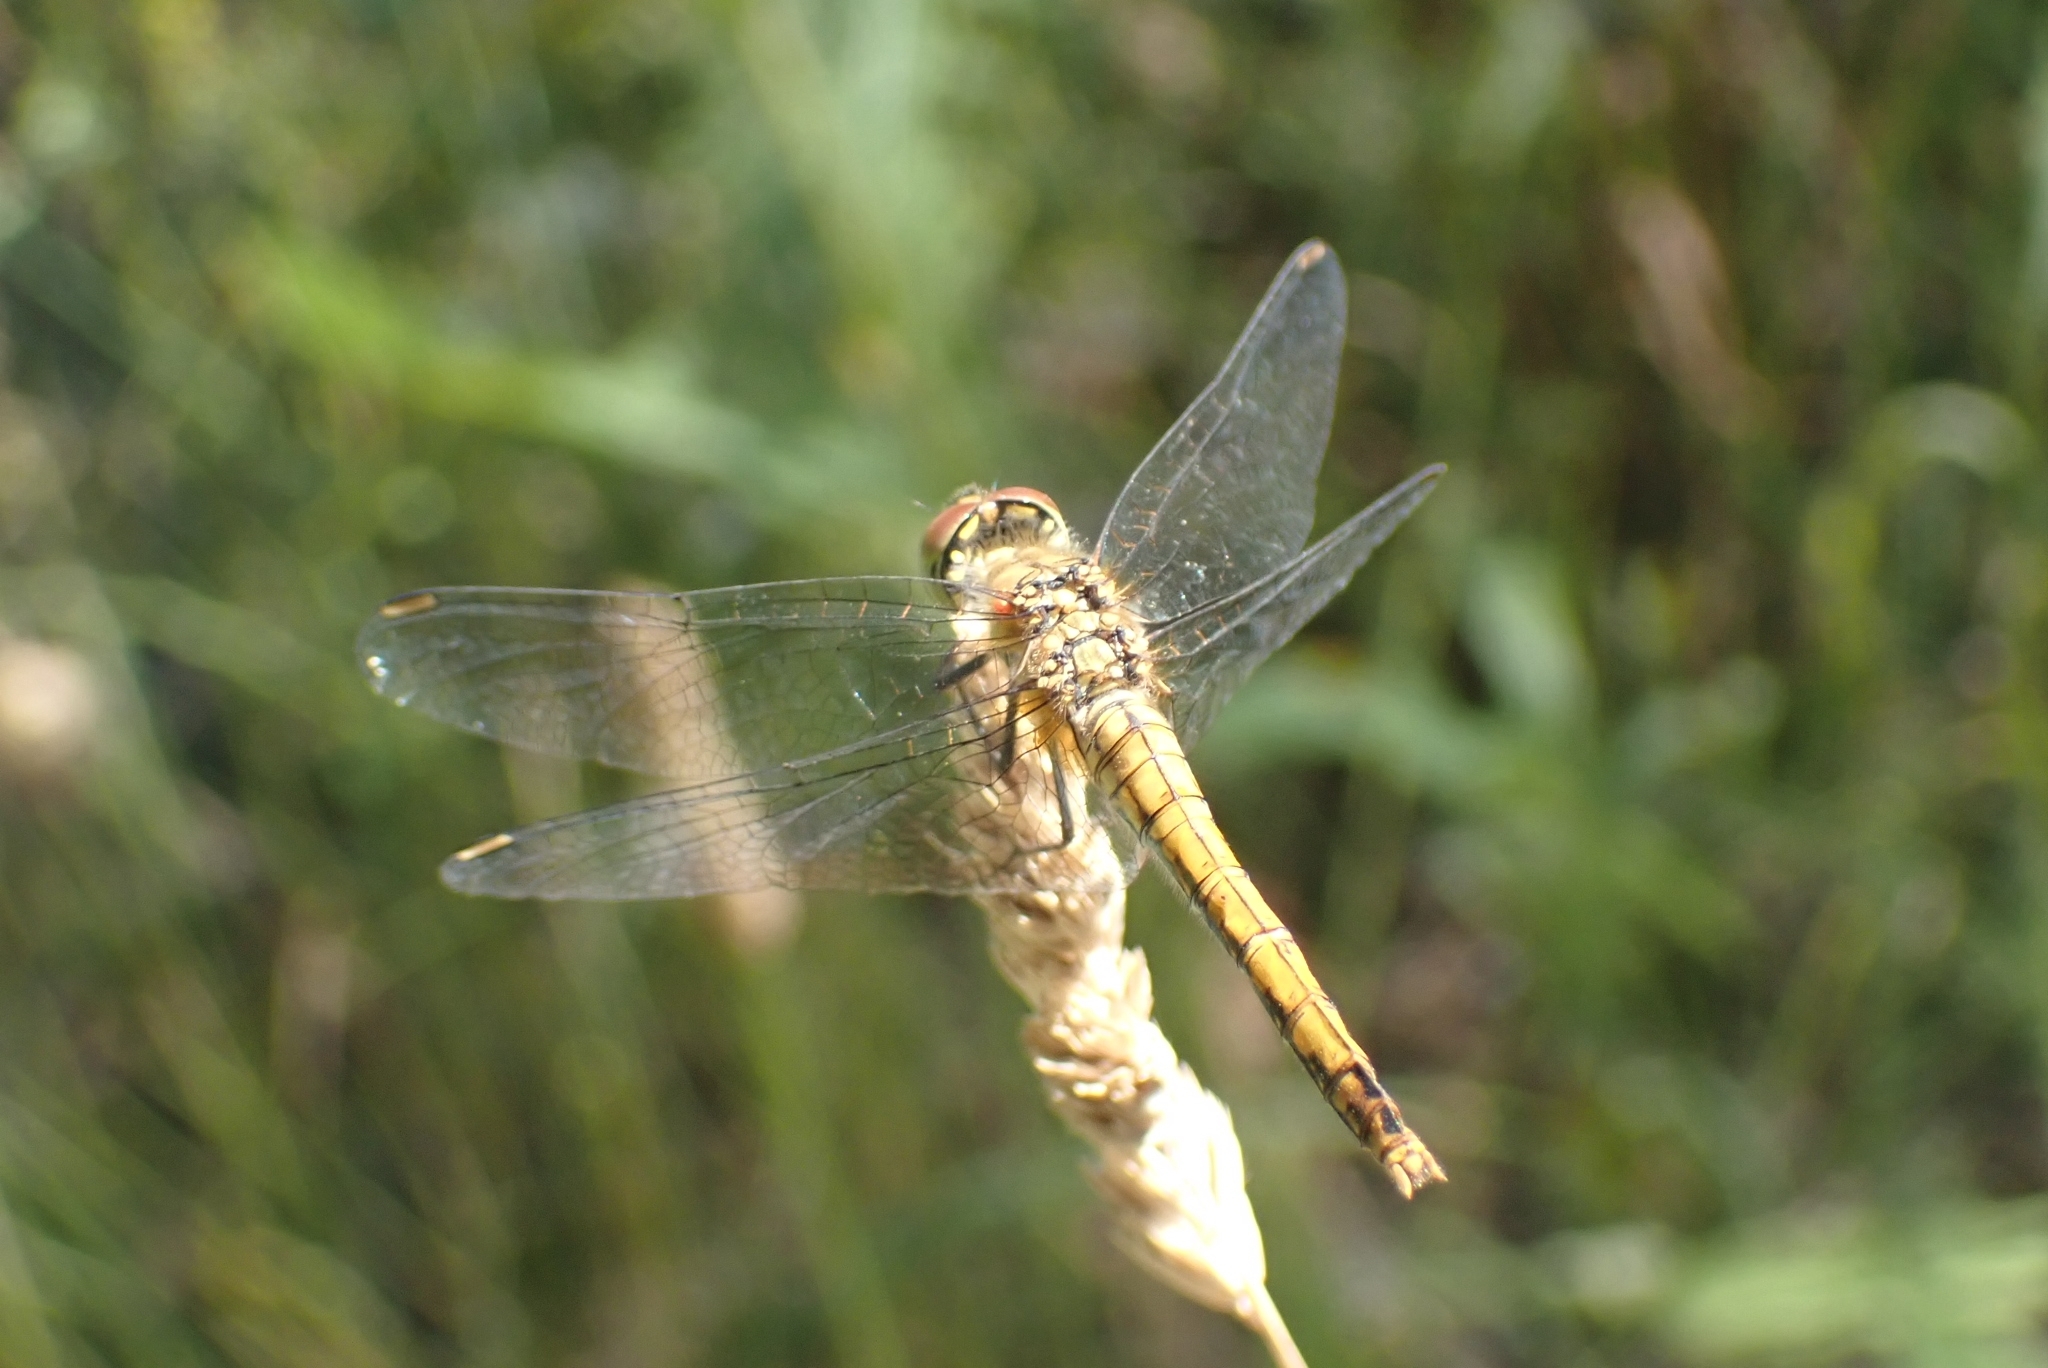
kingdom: Animalia
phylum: Arthropoda
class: Insecta
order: Odonata
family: Libellulidae
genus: Sympetrum
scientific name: Sympetrum sanguineum
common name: Ruddy darter
